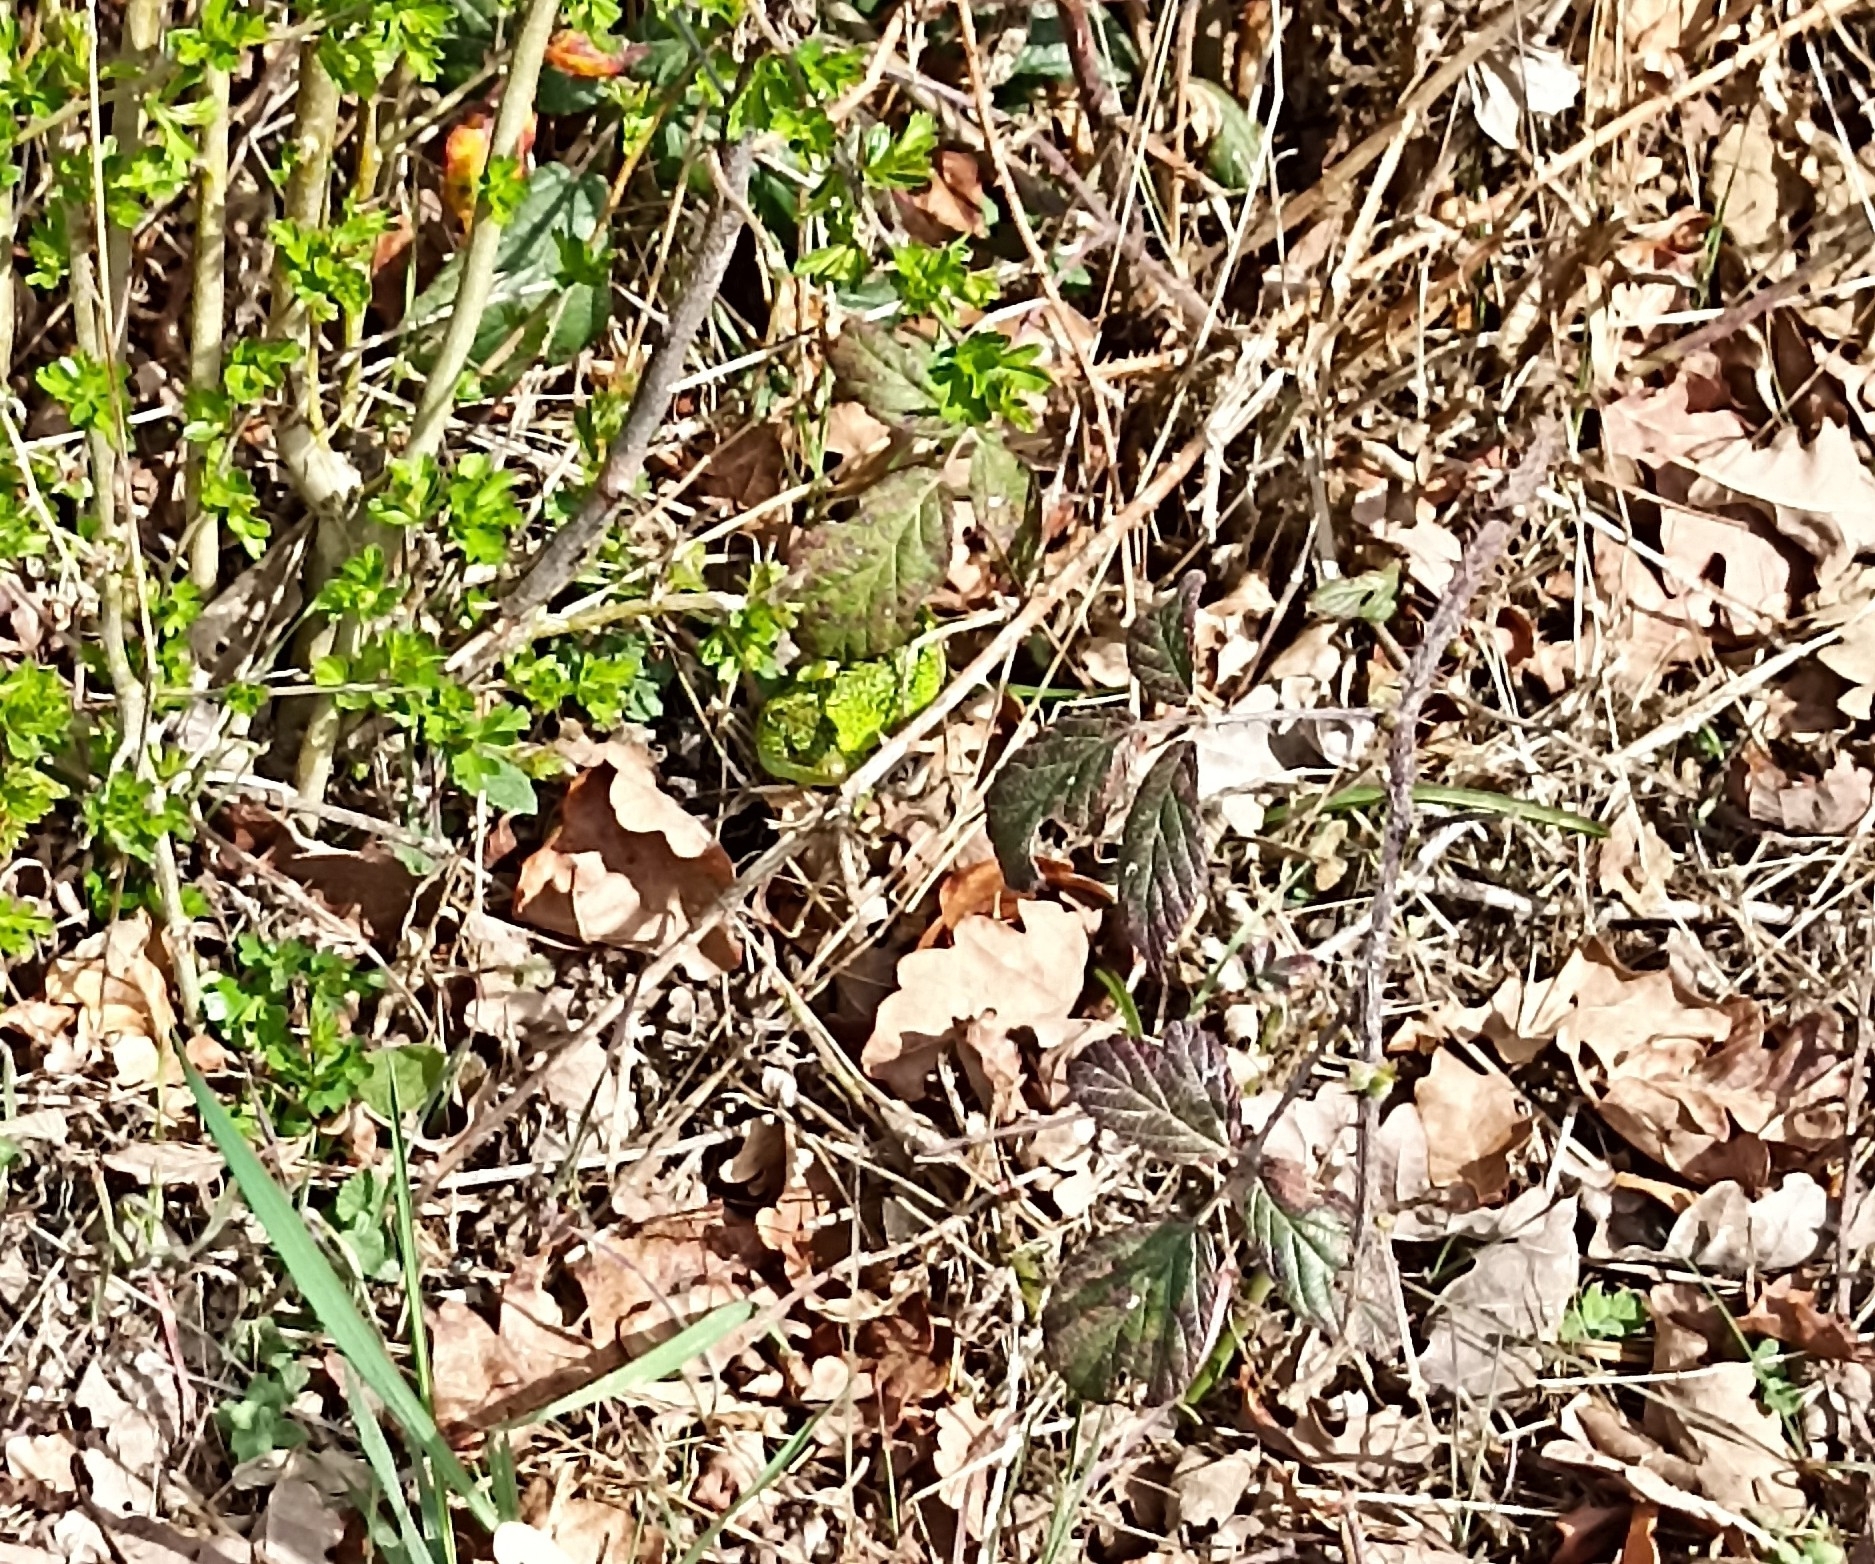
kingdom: Animalia
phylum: Chordata
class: Squamata
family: Lacertidae
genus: Lacerta
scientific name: Lacerta bilineata
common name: Western green lizard
